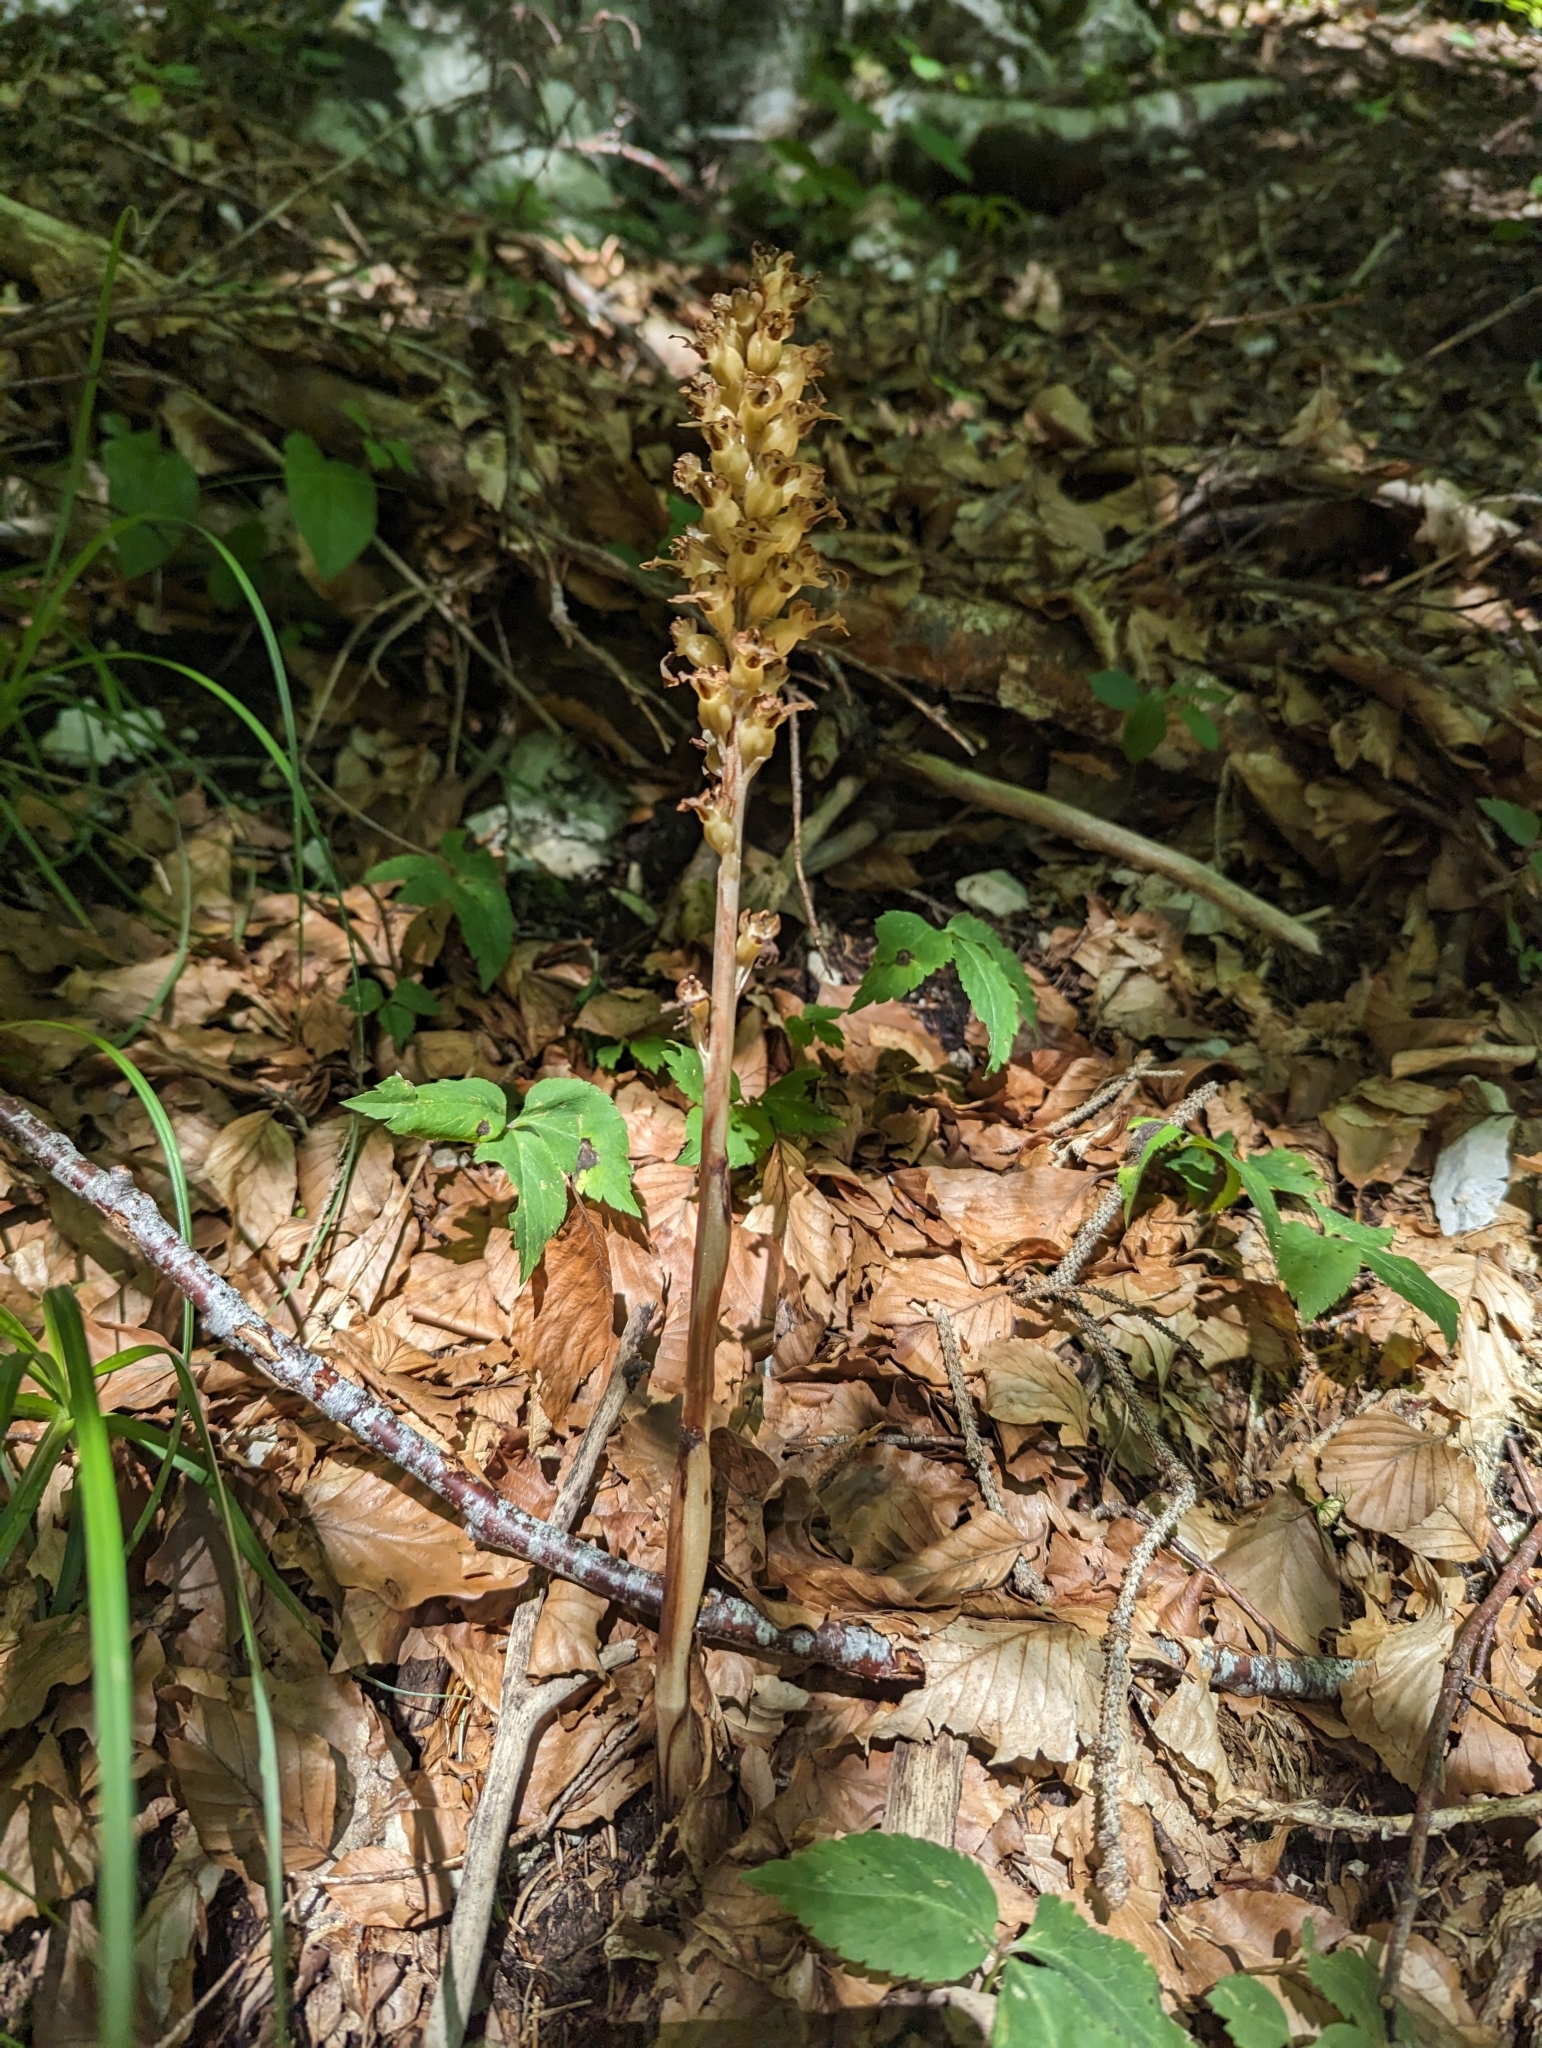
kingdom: Plantae
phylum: Tracheophyta
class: Liliopsida
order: Asparagales
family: Orchidaceae
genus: Neottia
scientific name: Neottia nidus-avis
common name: Bird's-nest orchid
